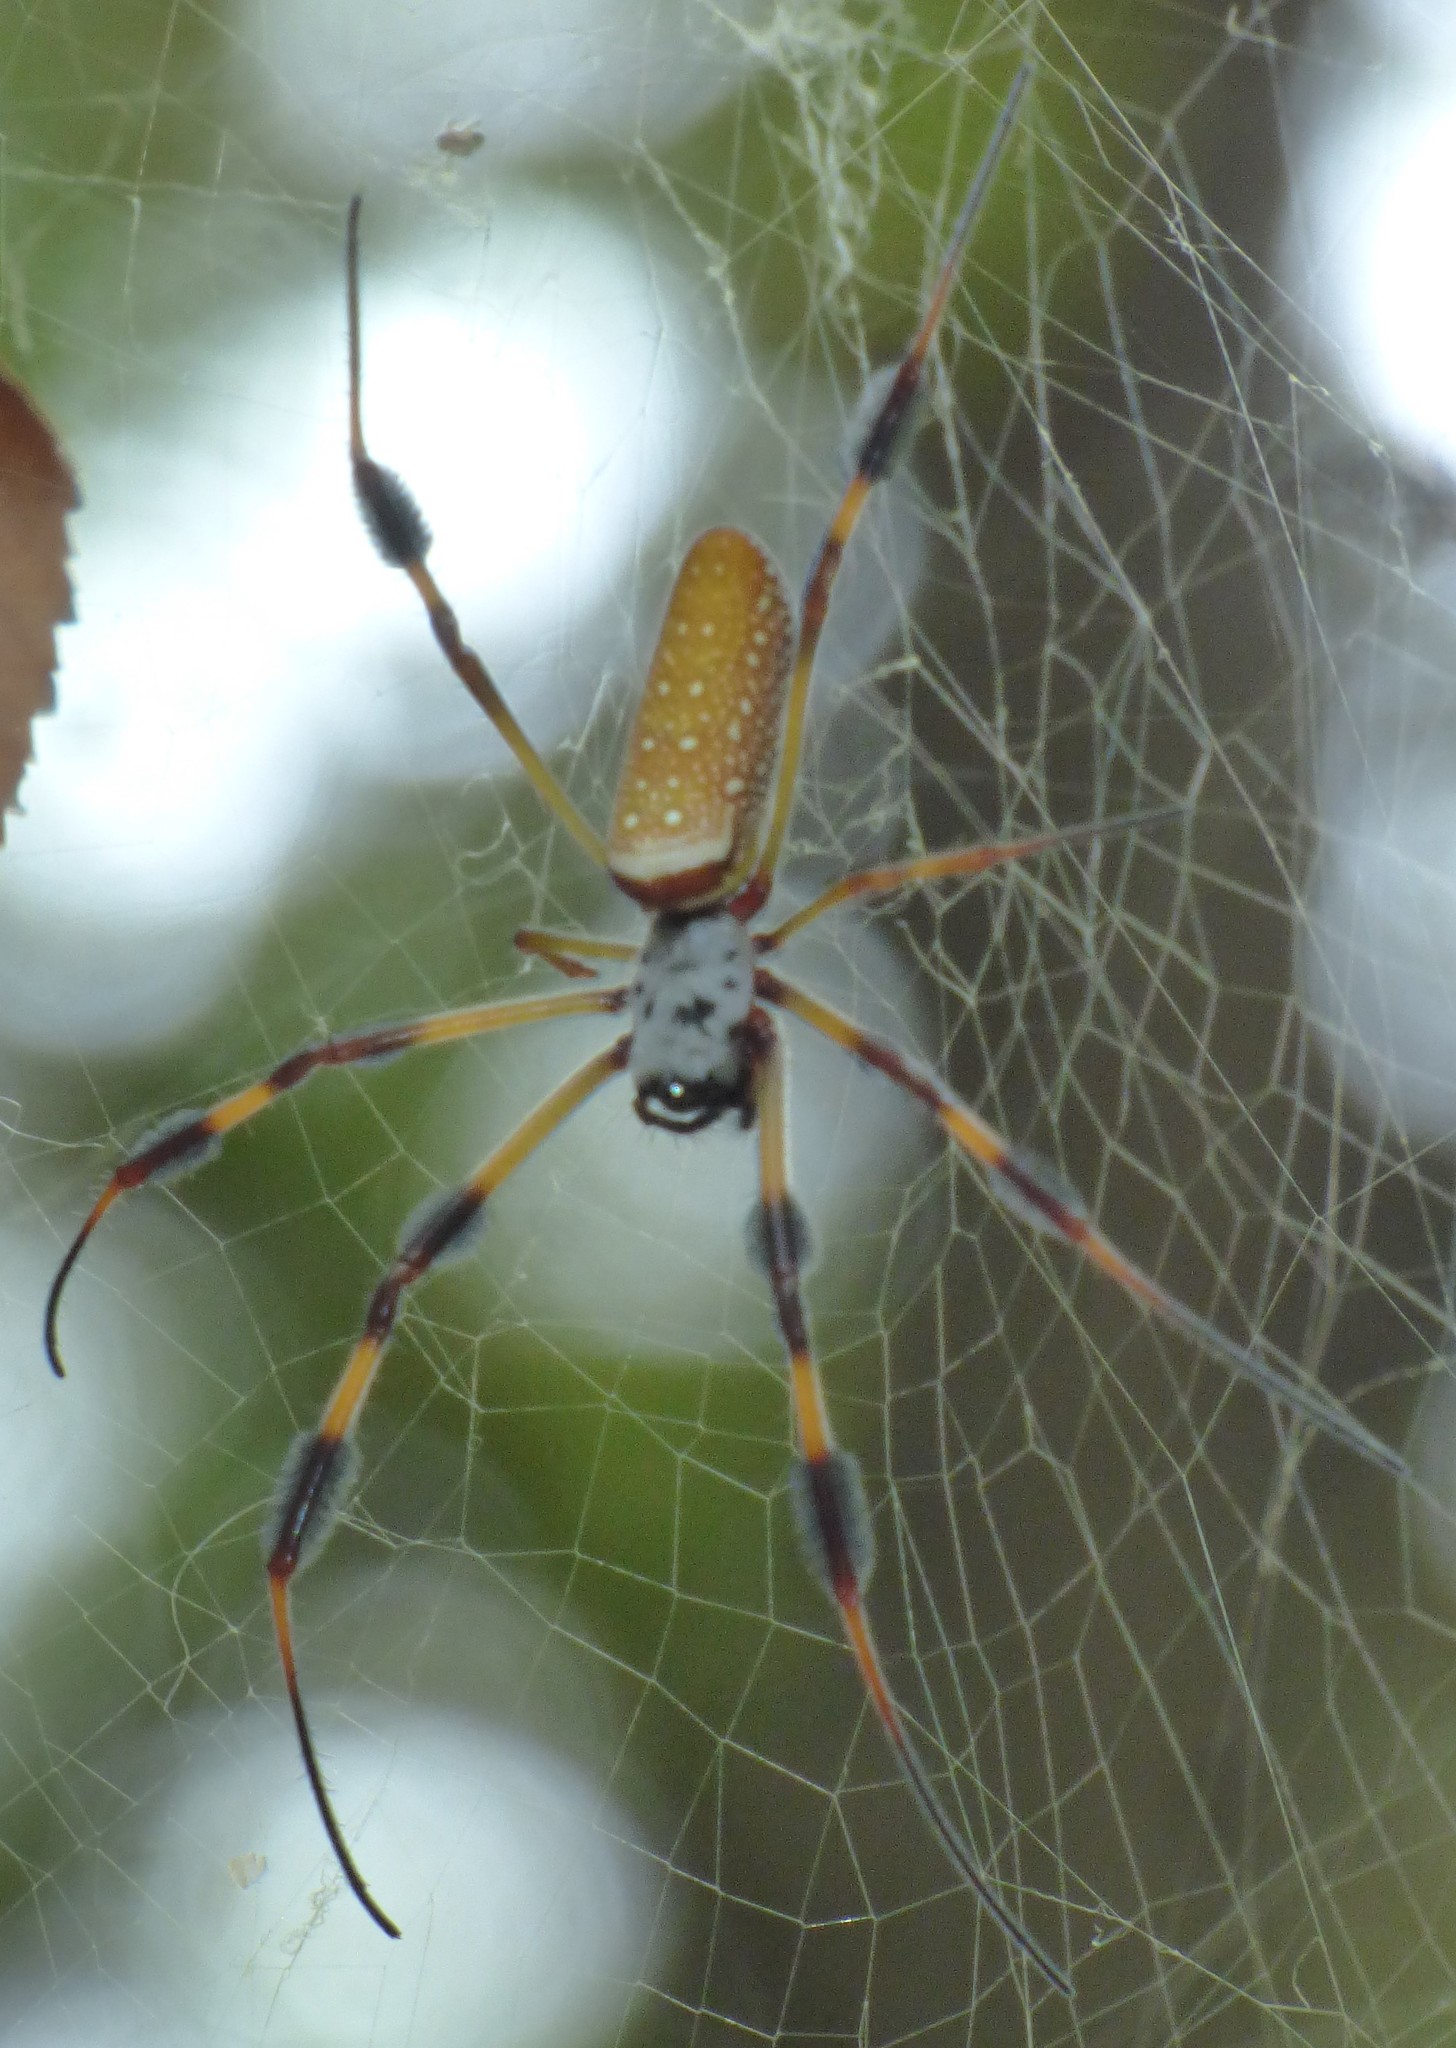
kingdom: Animalia
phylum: Arthropoda
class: Arachnida
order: Araneae
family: Araneidae
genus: Trichonephila
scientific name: Trichonephila clavipes
